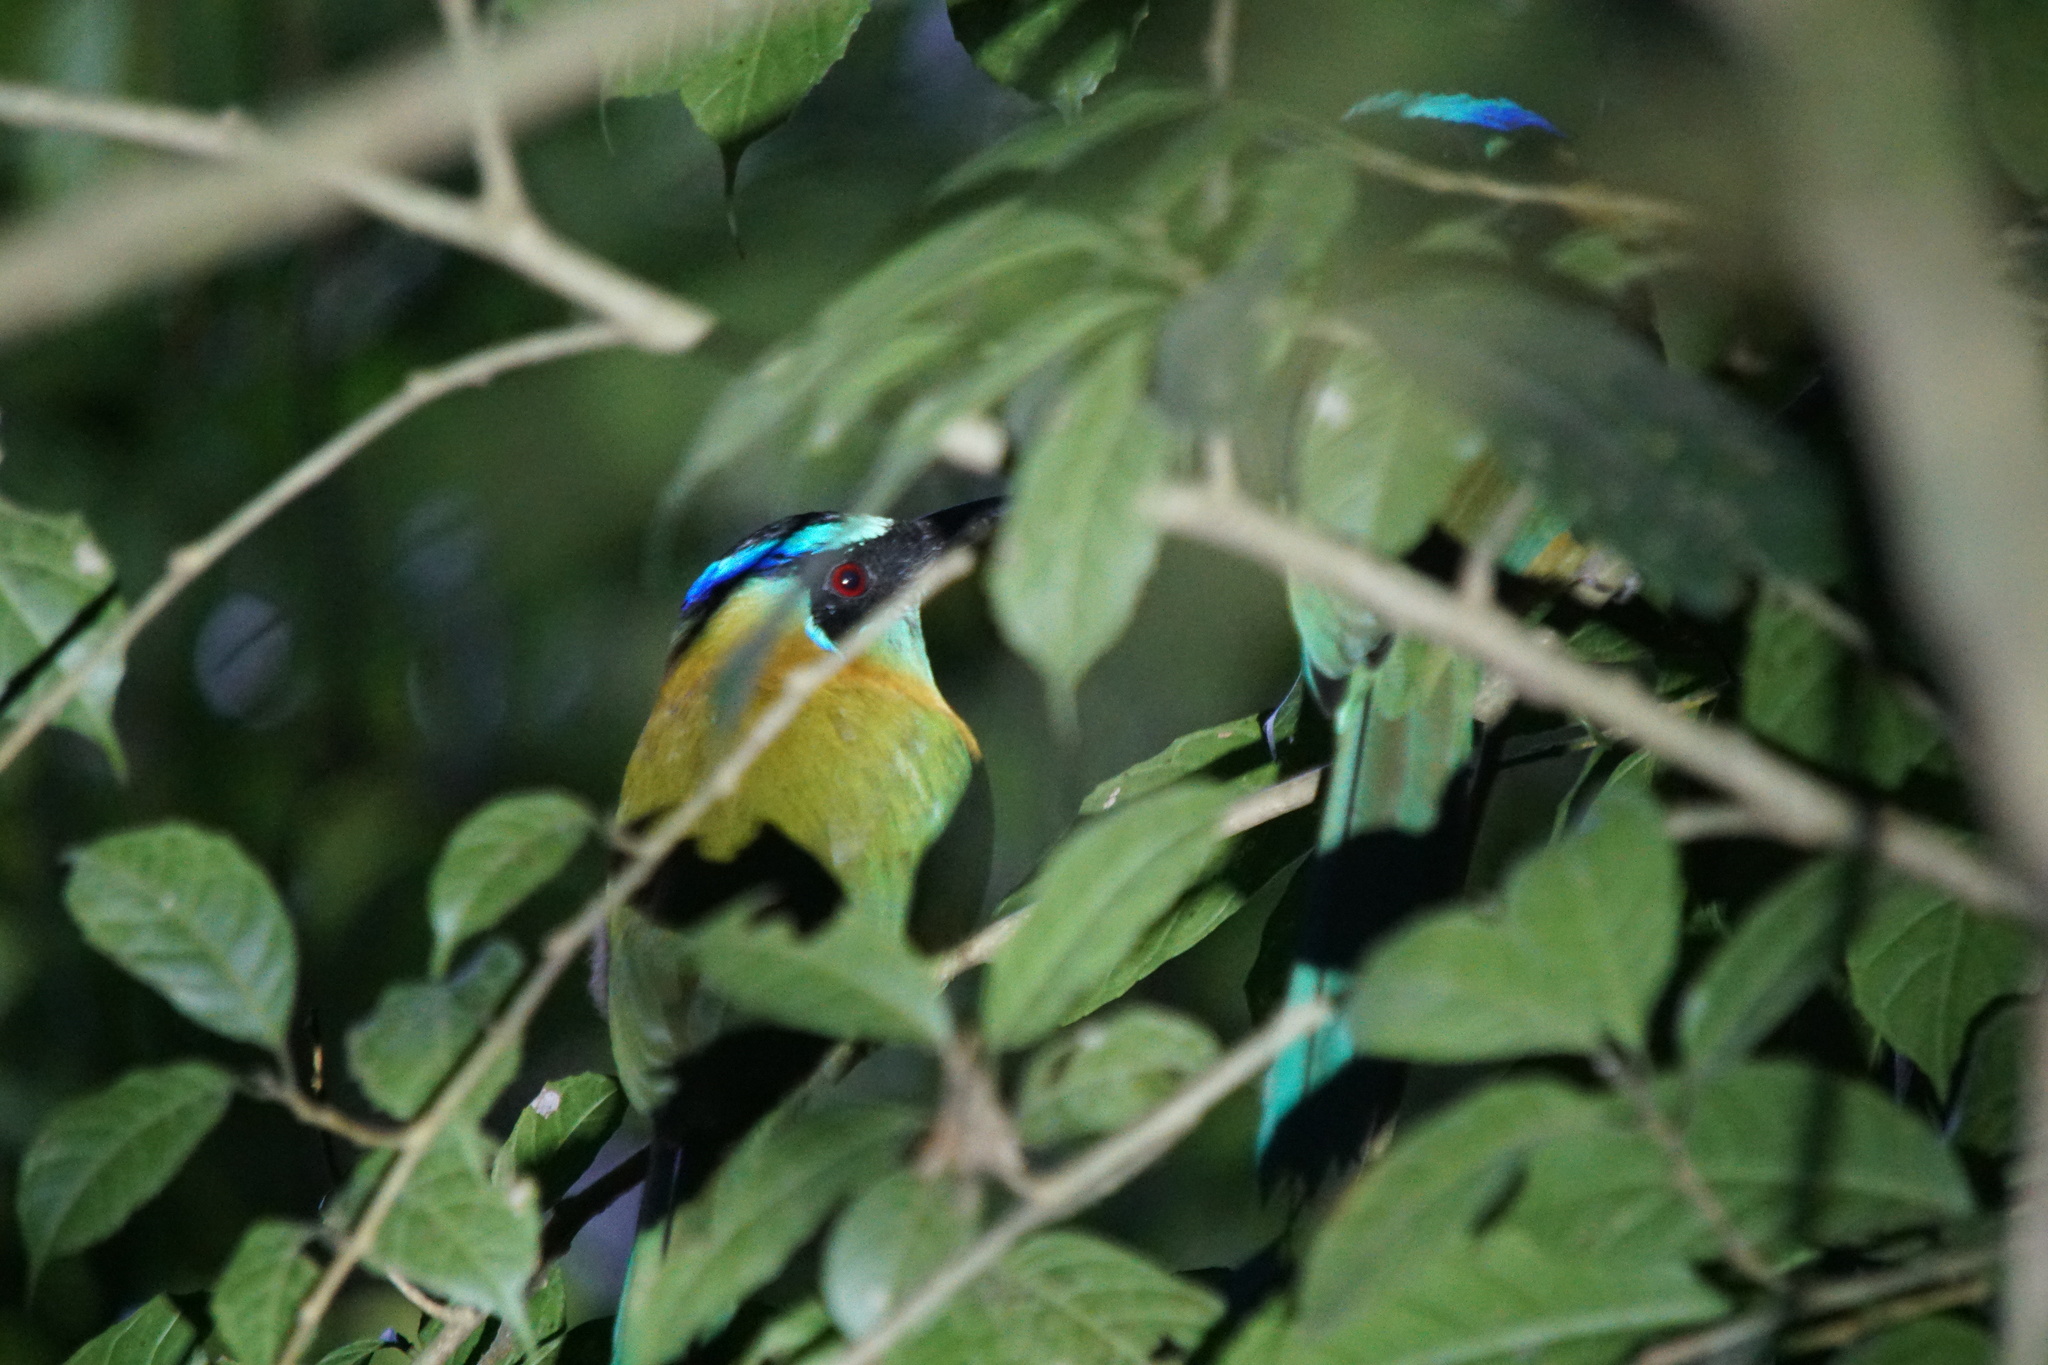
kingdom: Animalia
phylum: Chordata
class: Aves
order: Coraciiformes
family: Momotidae
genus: Momotus
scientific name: Momotus lessonii
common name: Lesson's motmot
